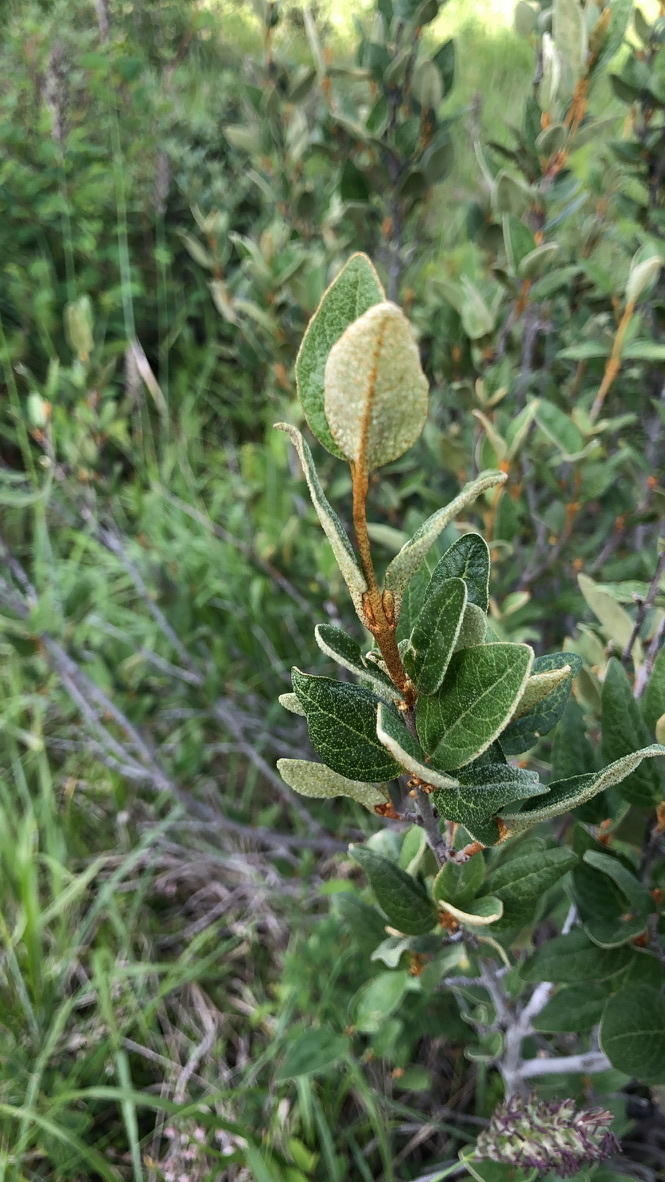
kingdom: Plantae
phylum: Tracheophyta
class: Magnoliopsida
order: Rosales
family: Elaeagnaceae
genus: Shepherdia
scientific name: Shepherdia canadensis
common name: Soapberry
